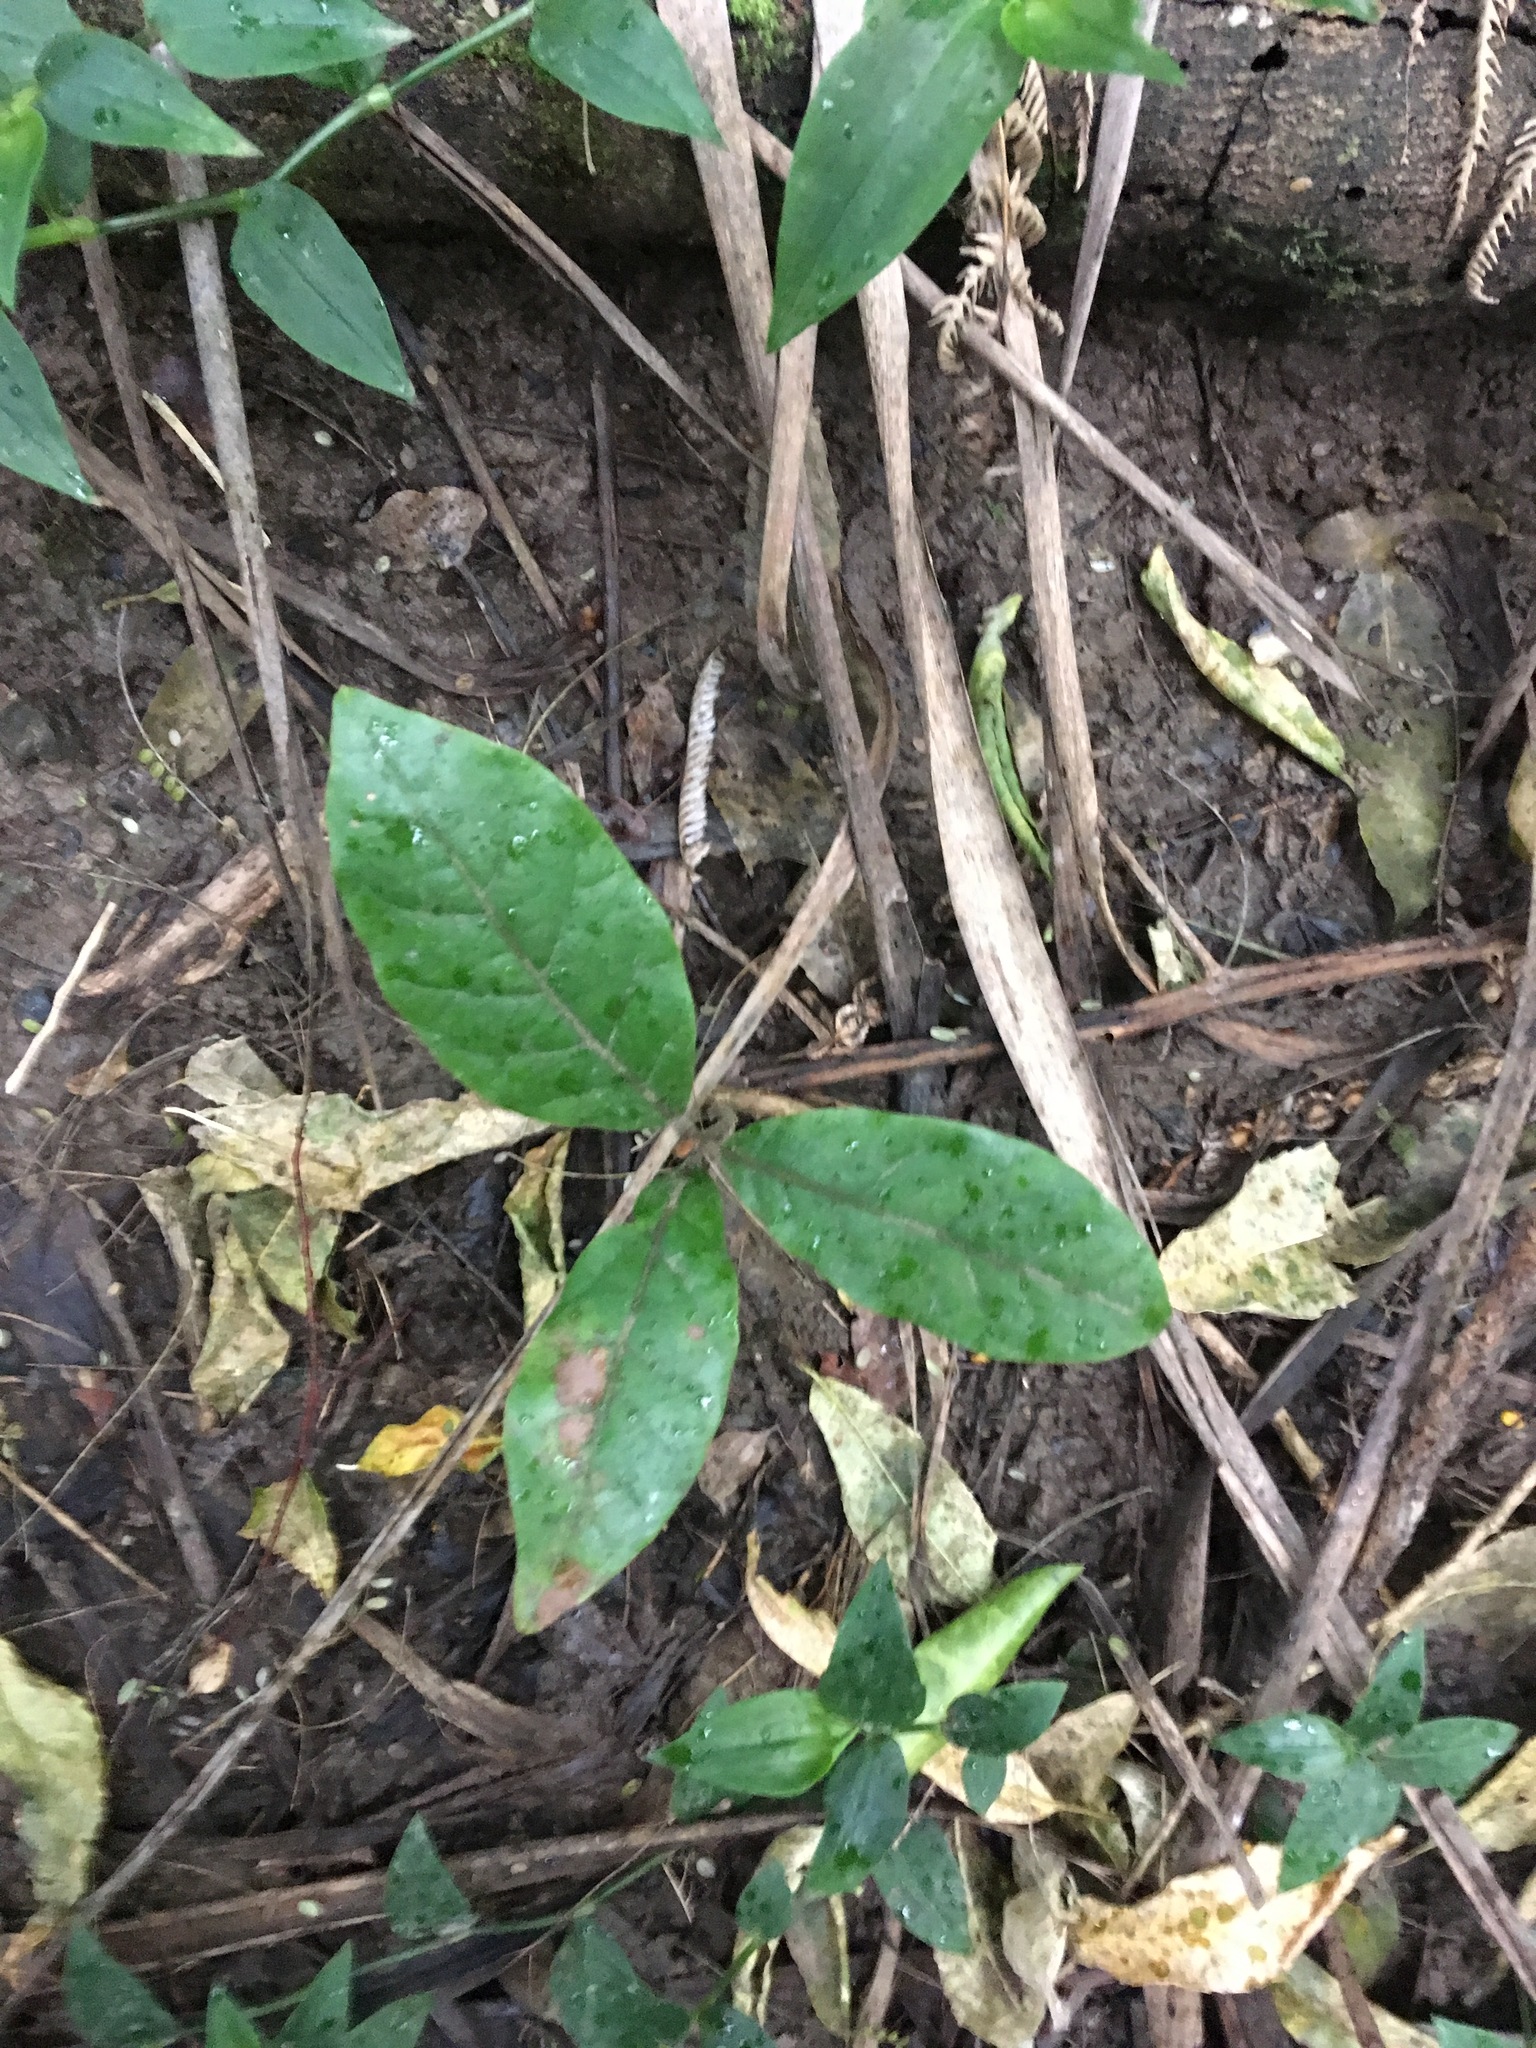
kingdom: Plantae
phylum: Tracheophyta
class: Magnoliopsida
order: Laurales
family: Lauraceae
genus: Beilschmiedia
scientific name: Beilschmiedia tarairi
